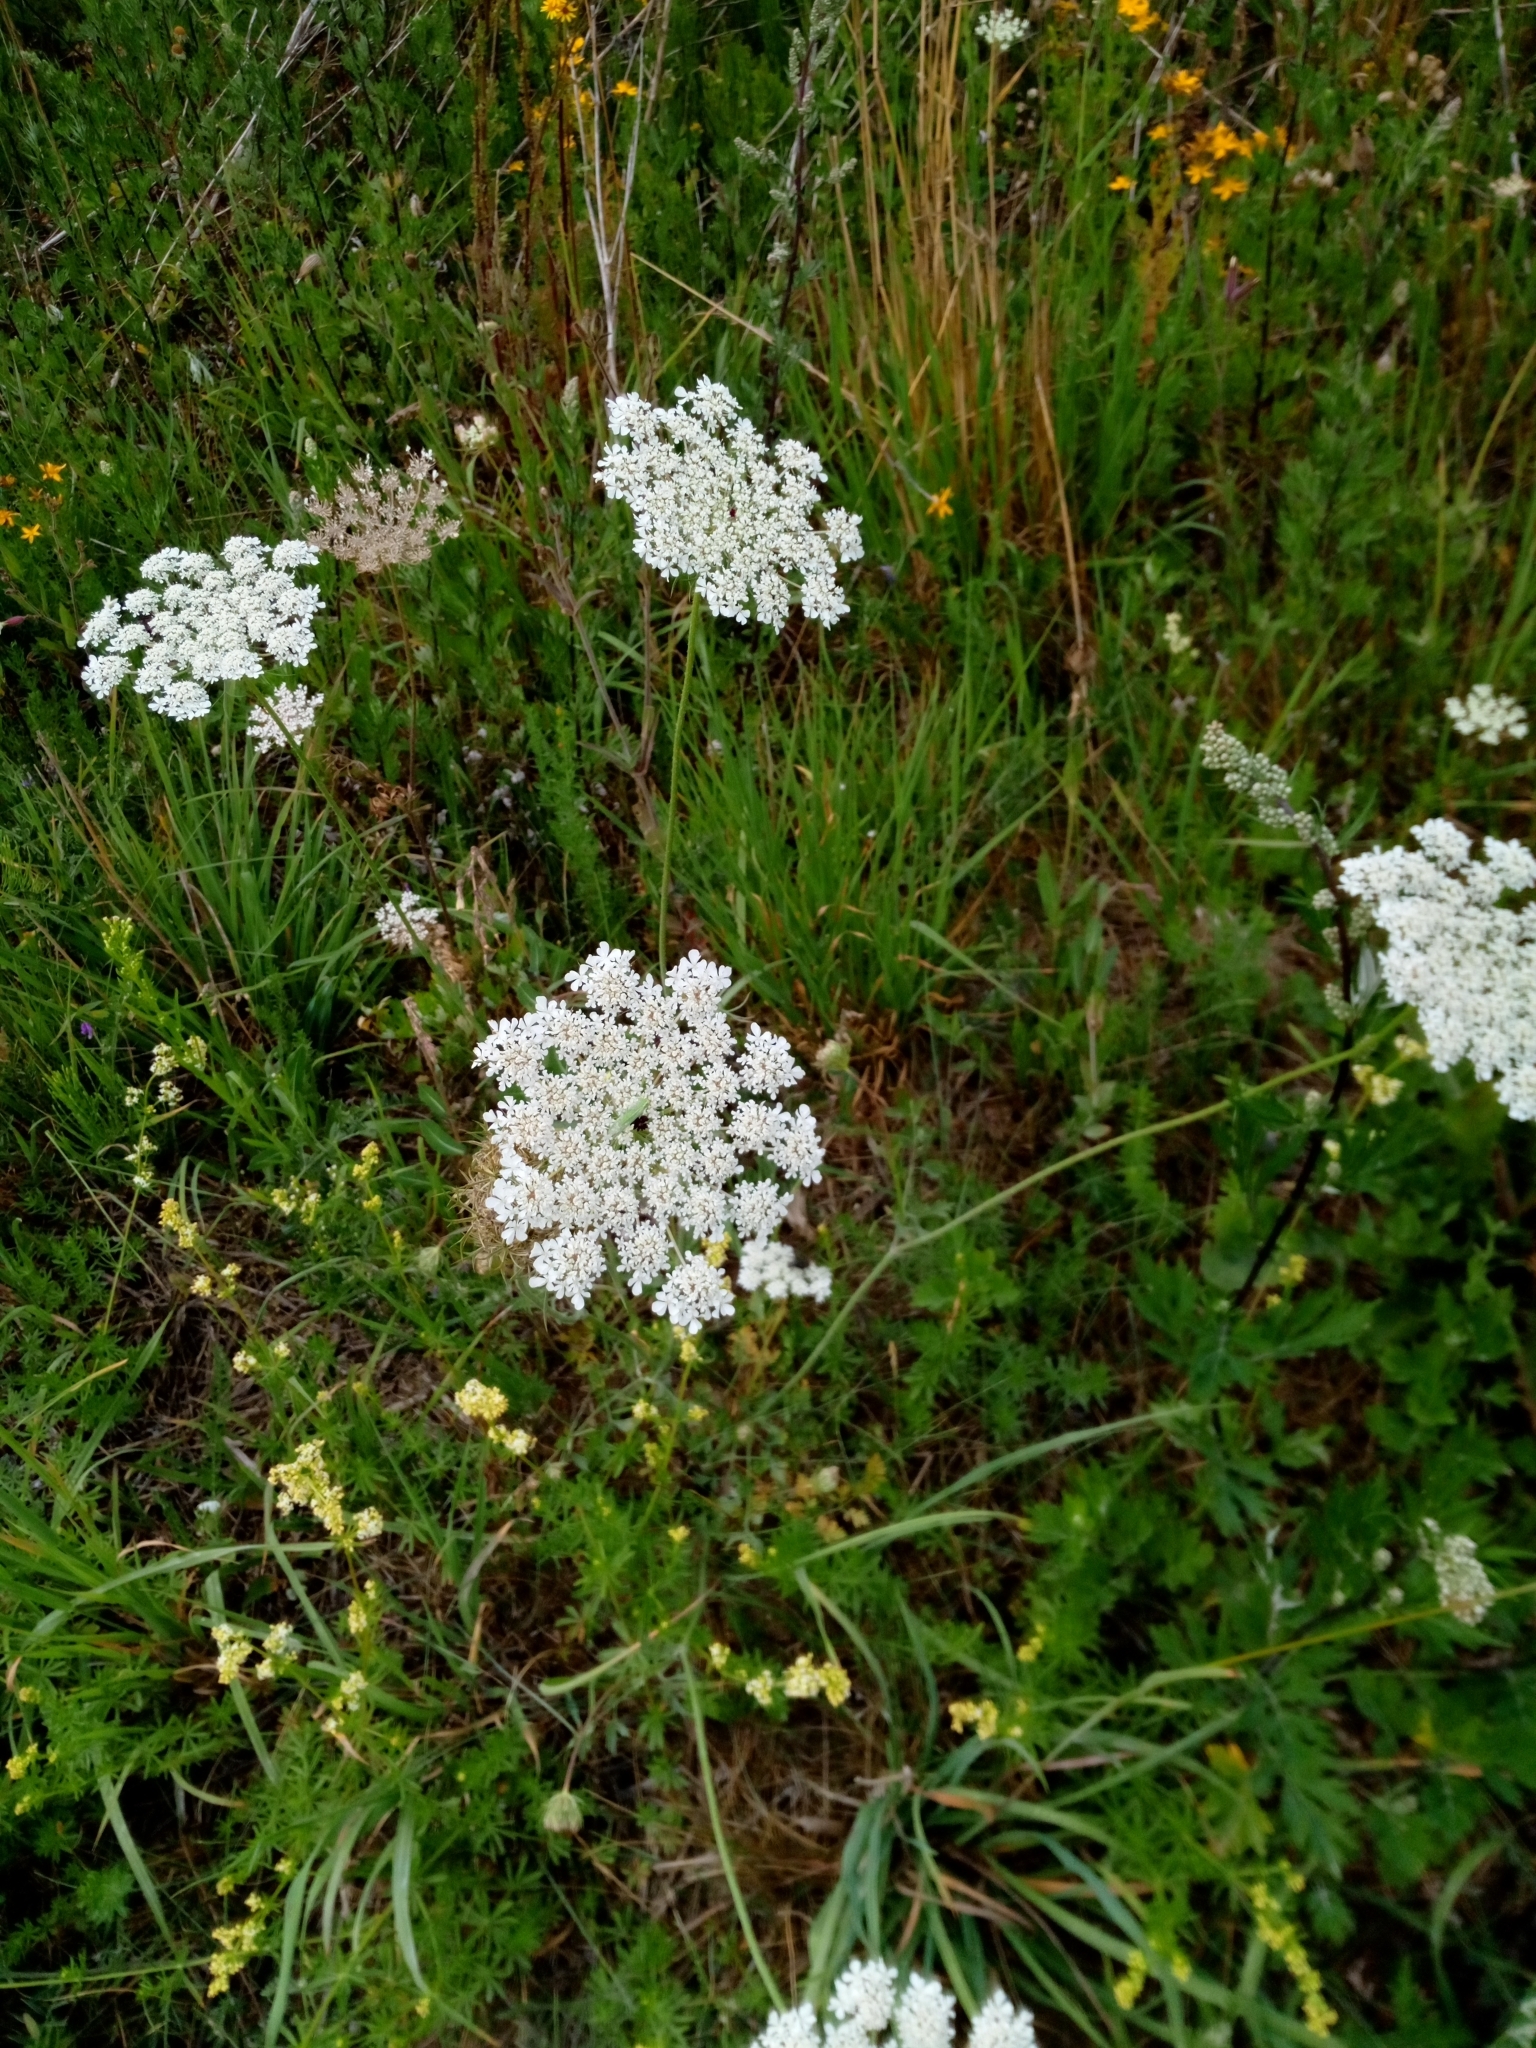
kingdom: Plantae
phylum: Tracheophyta
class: Magnoliopsida
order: Apiales
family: Apiaceae
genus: Daucus
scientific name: Daucus carota
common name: Wild carrot
